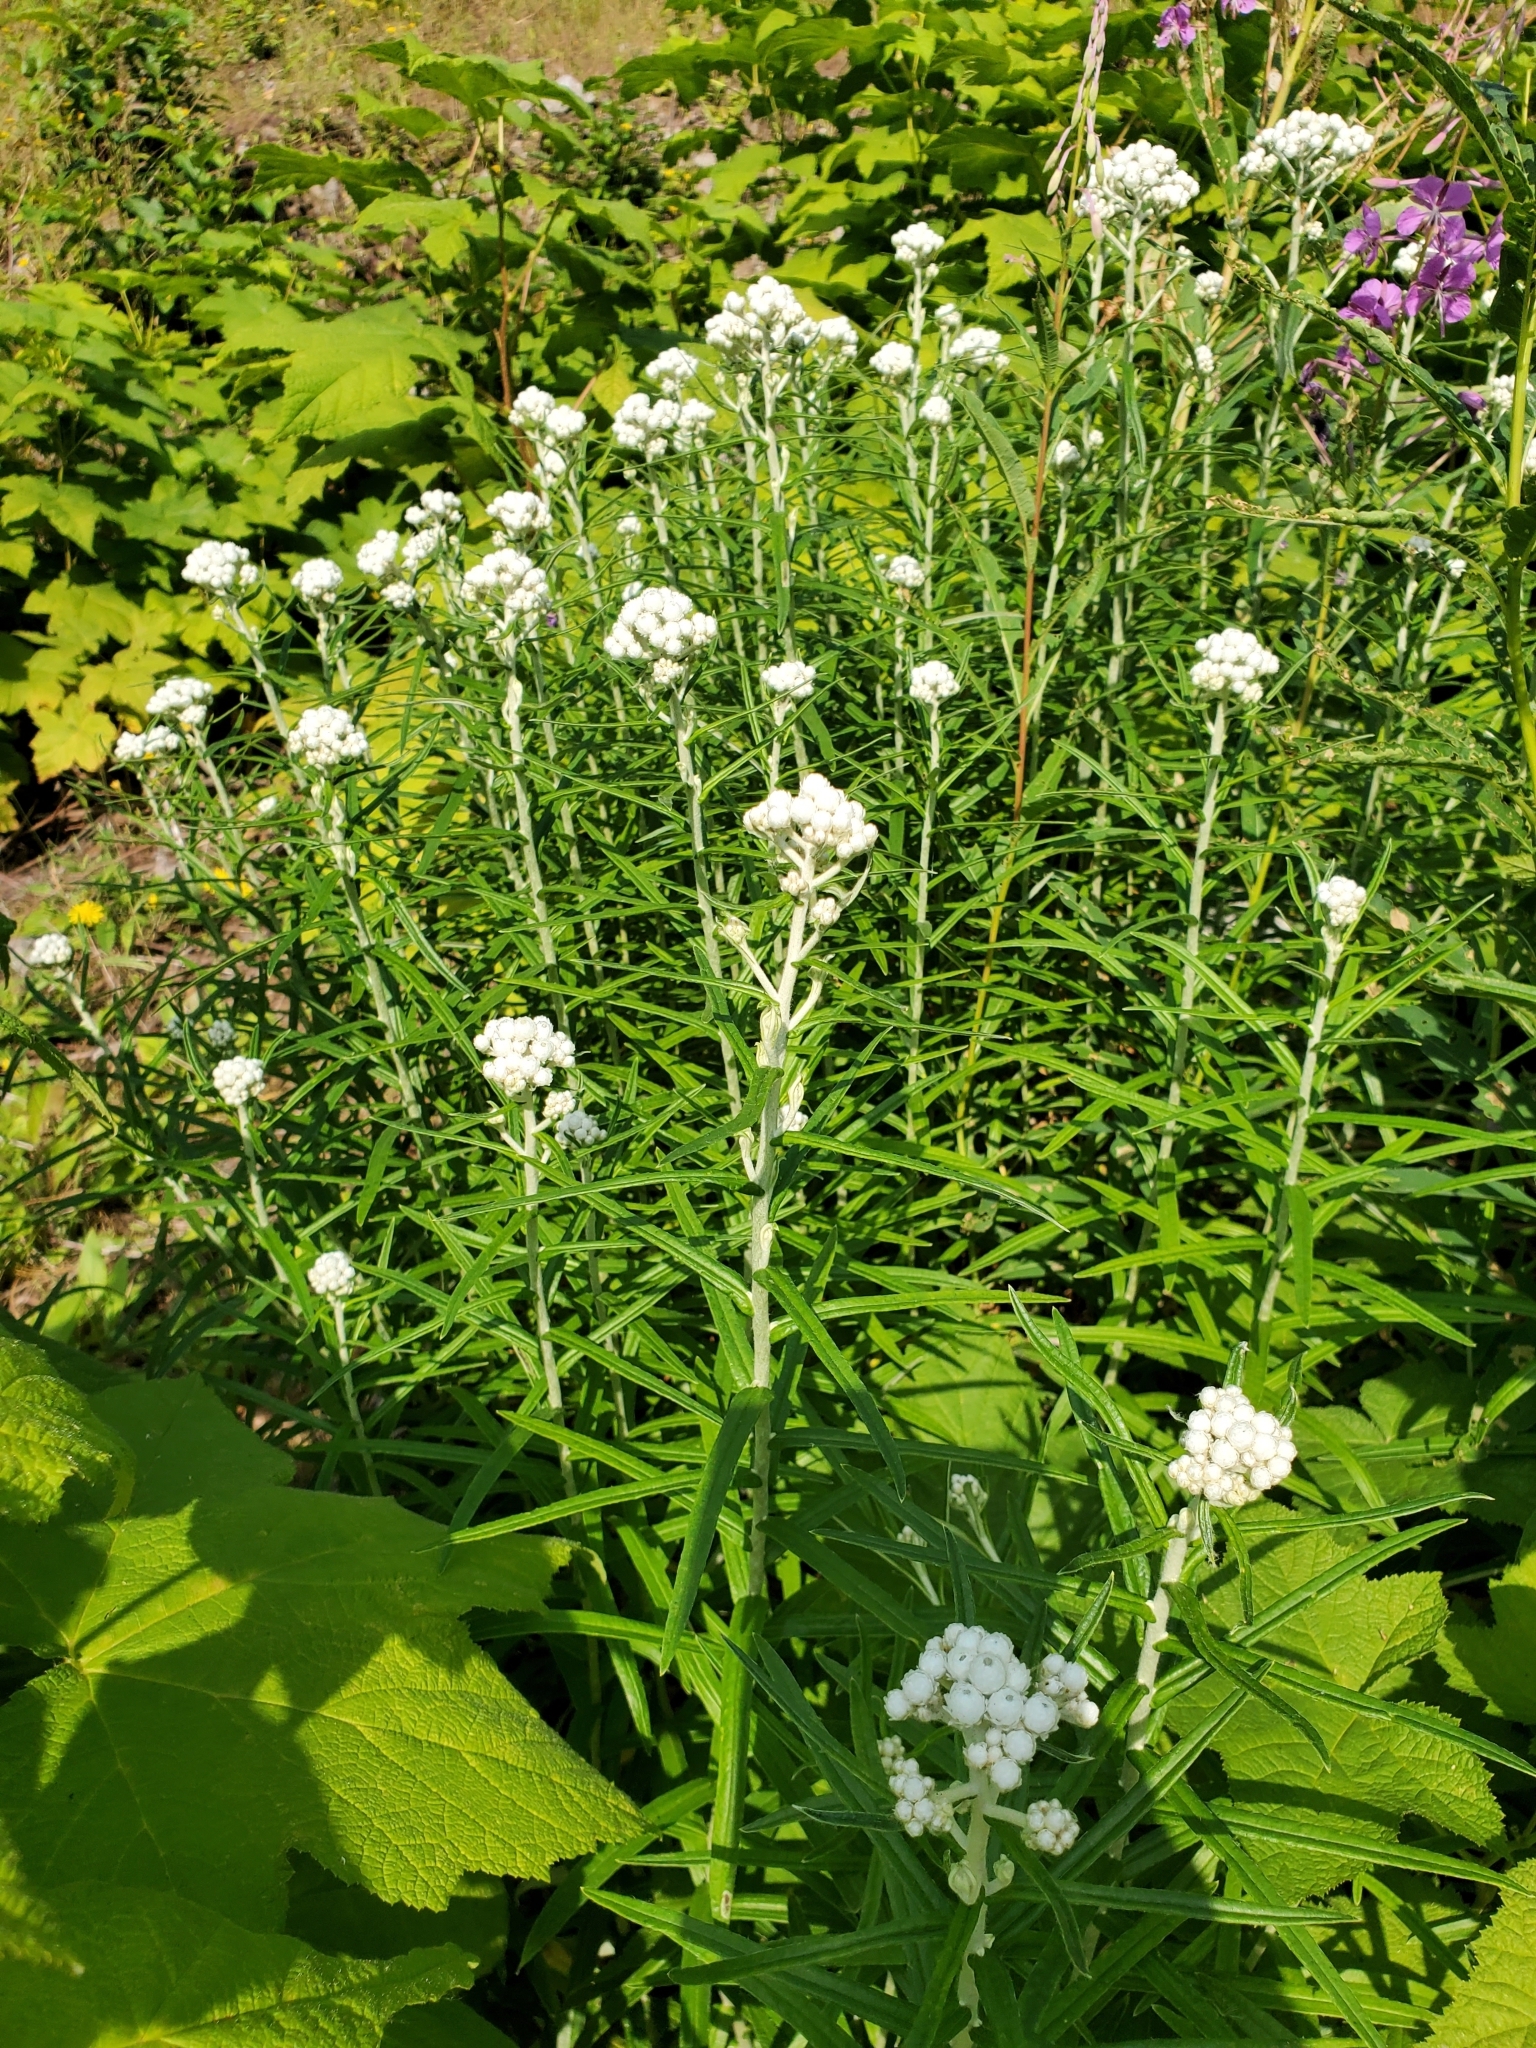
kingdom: Plantae
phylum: Tracheophyta
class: Magnoliopsida
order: Asterales
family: Asteraceae
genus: Anaphalis
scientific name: Anaphalis margaritacea
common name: Pearly everlasting
